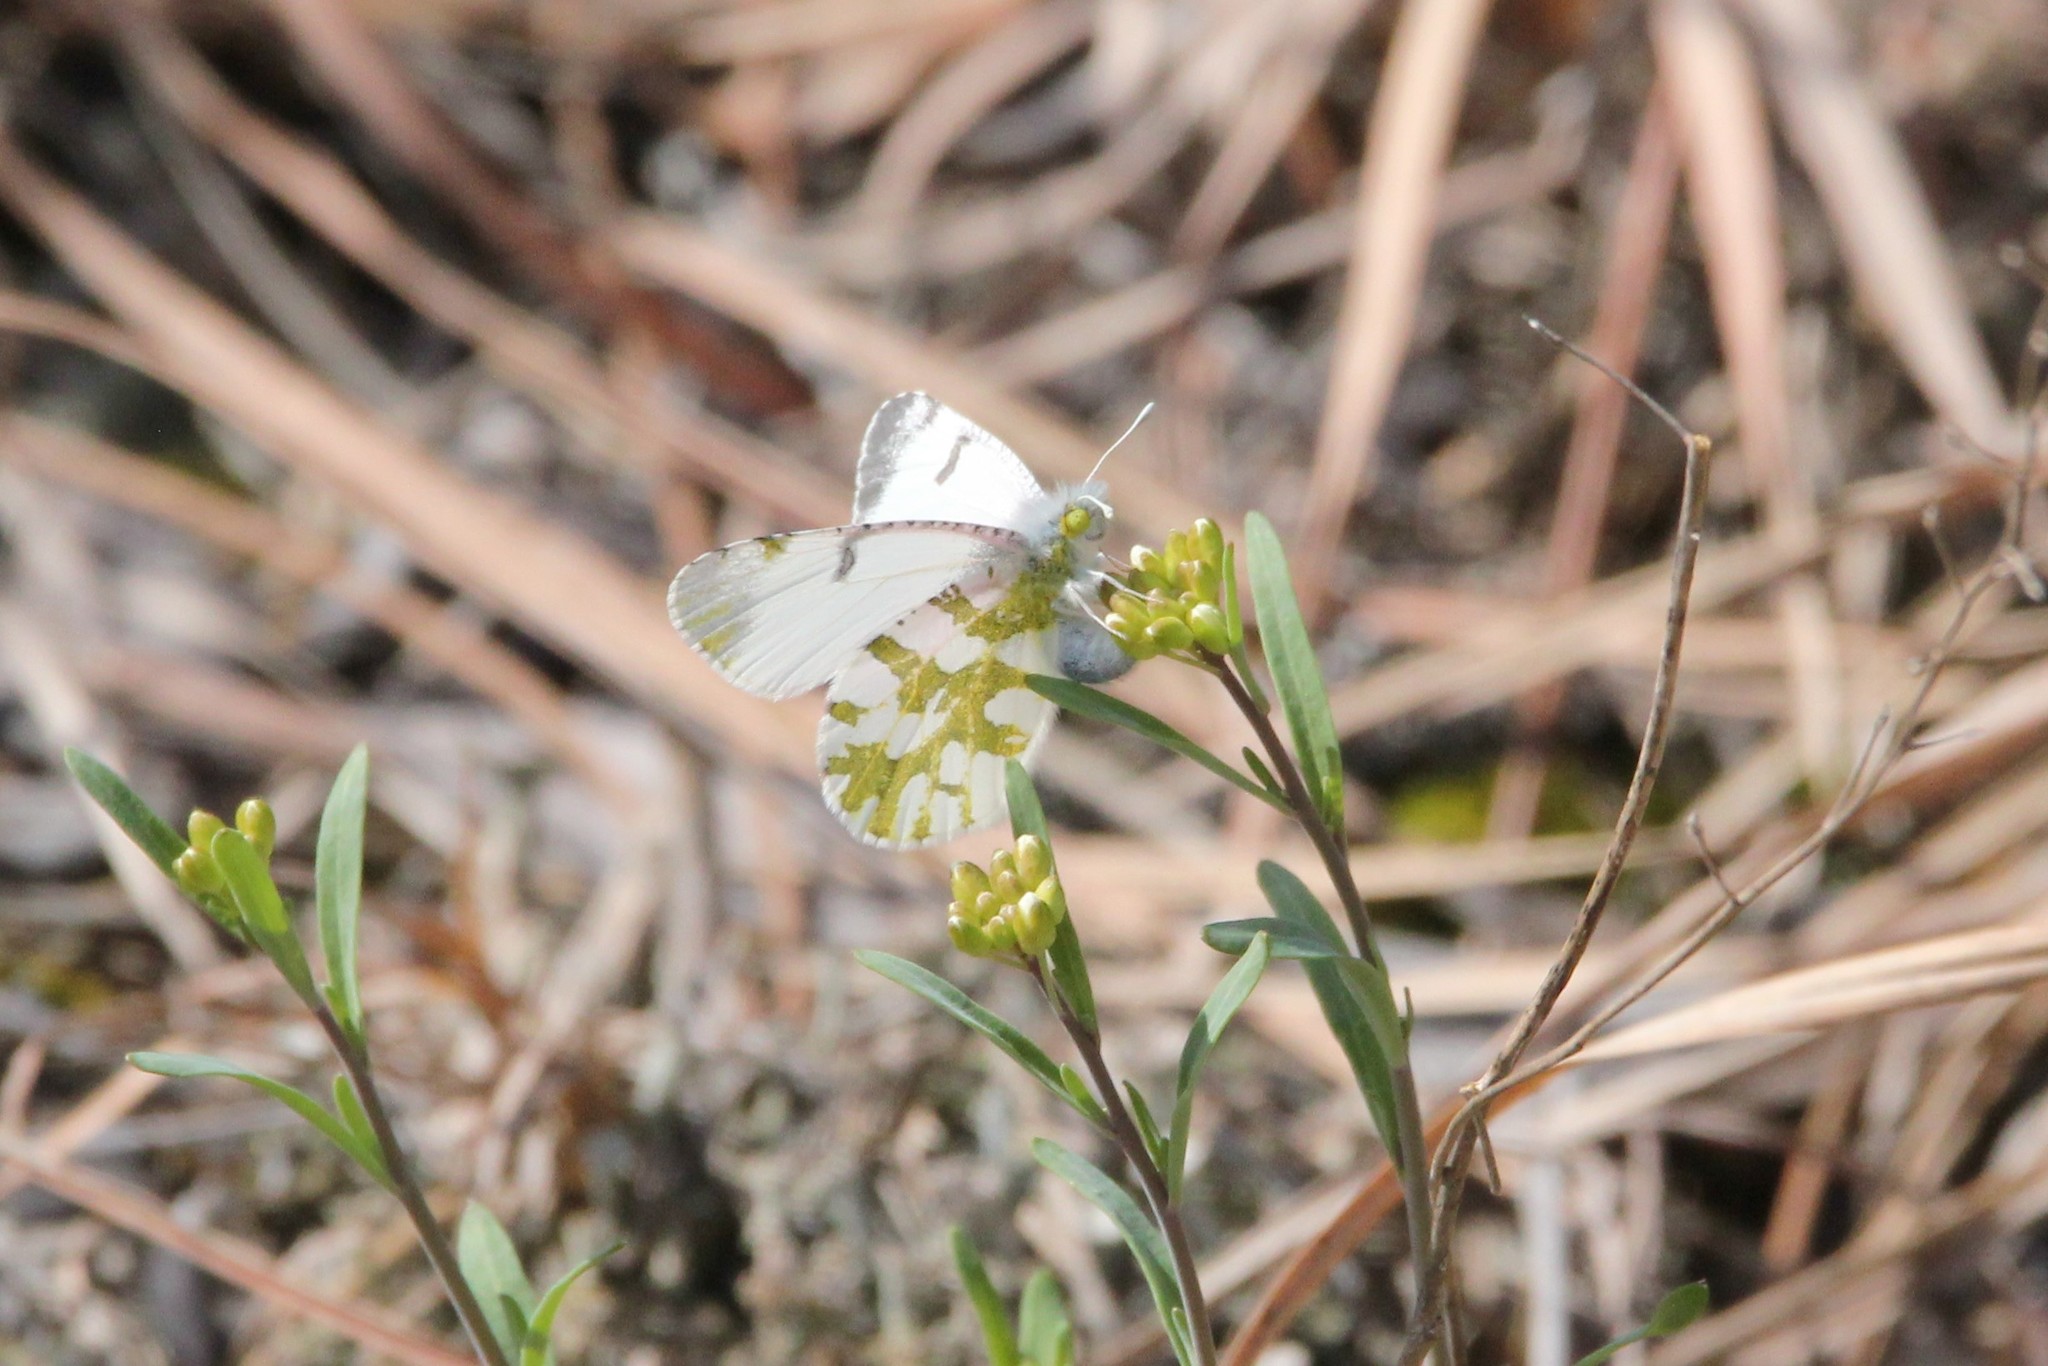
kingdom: Animalia
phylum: Arthropoda
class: Insecta
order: Lepidoptera
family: Pieridae
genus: Euchloe
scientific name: Euchloe olympia
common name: Olympia
